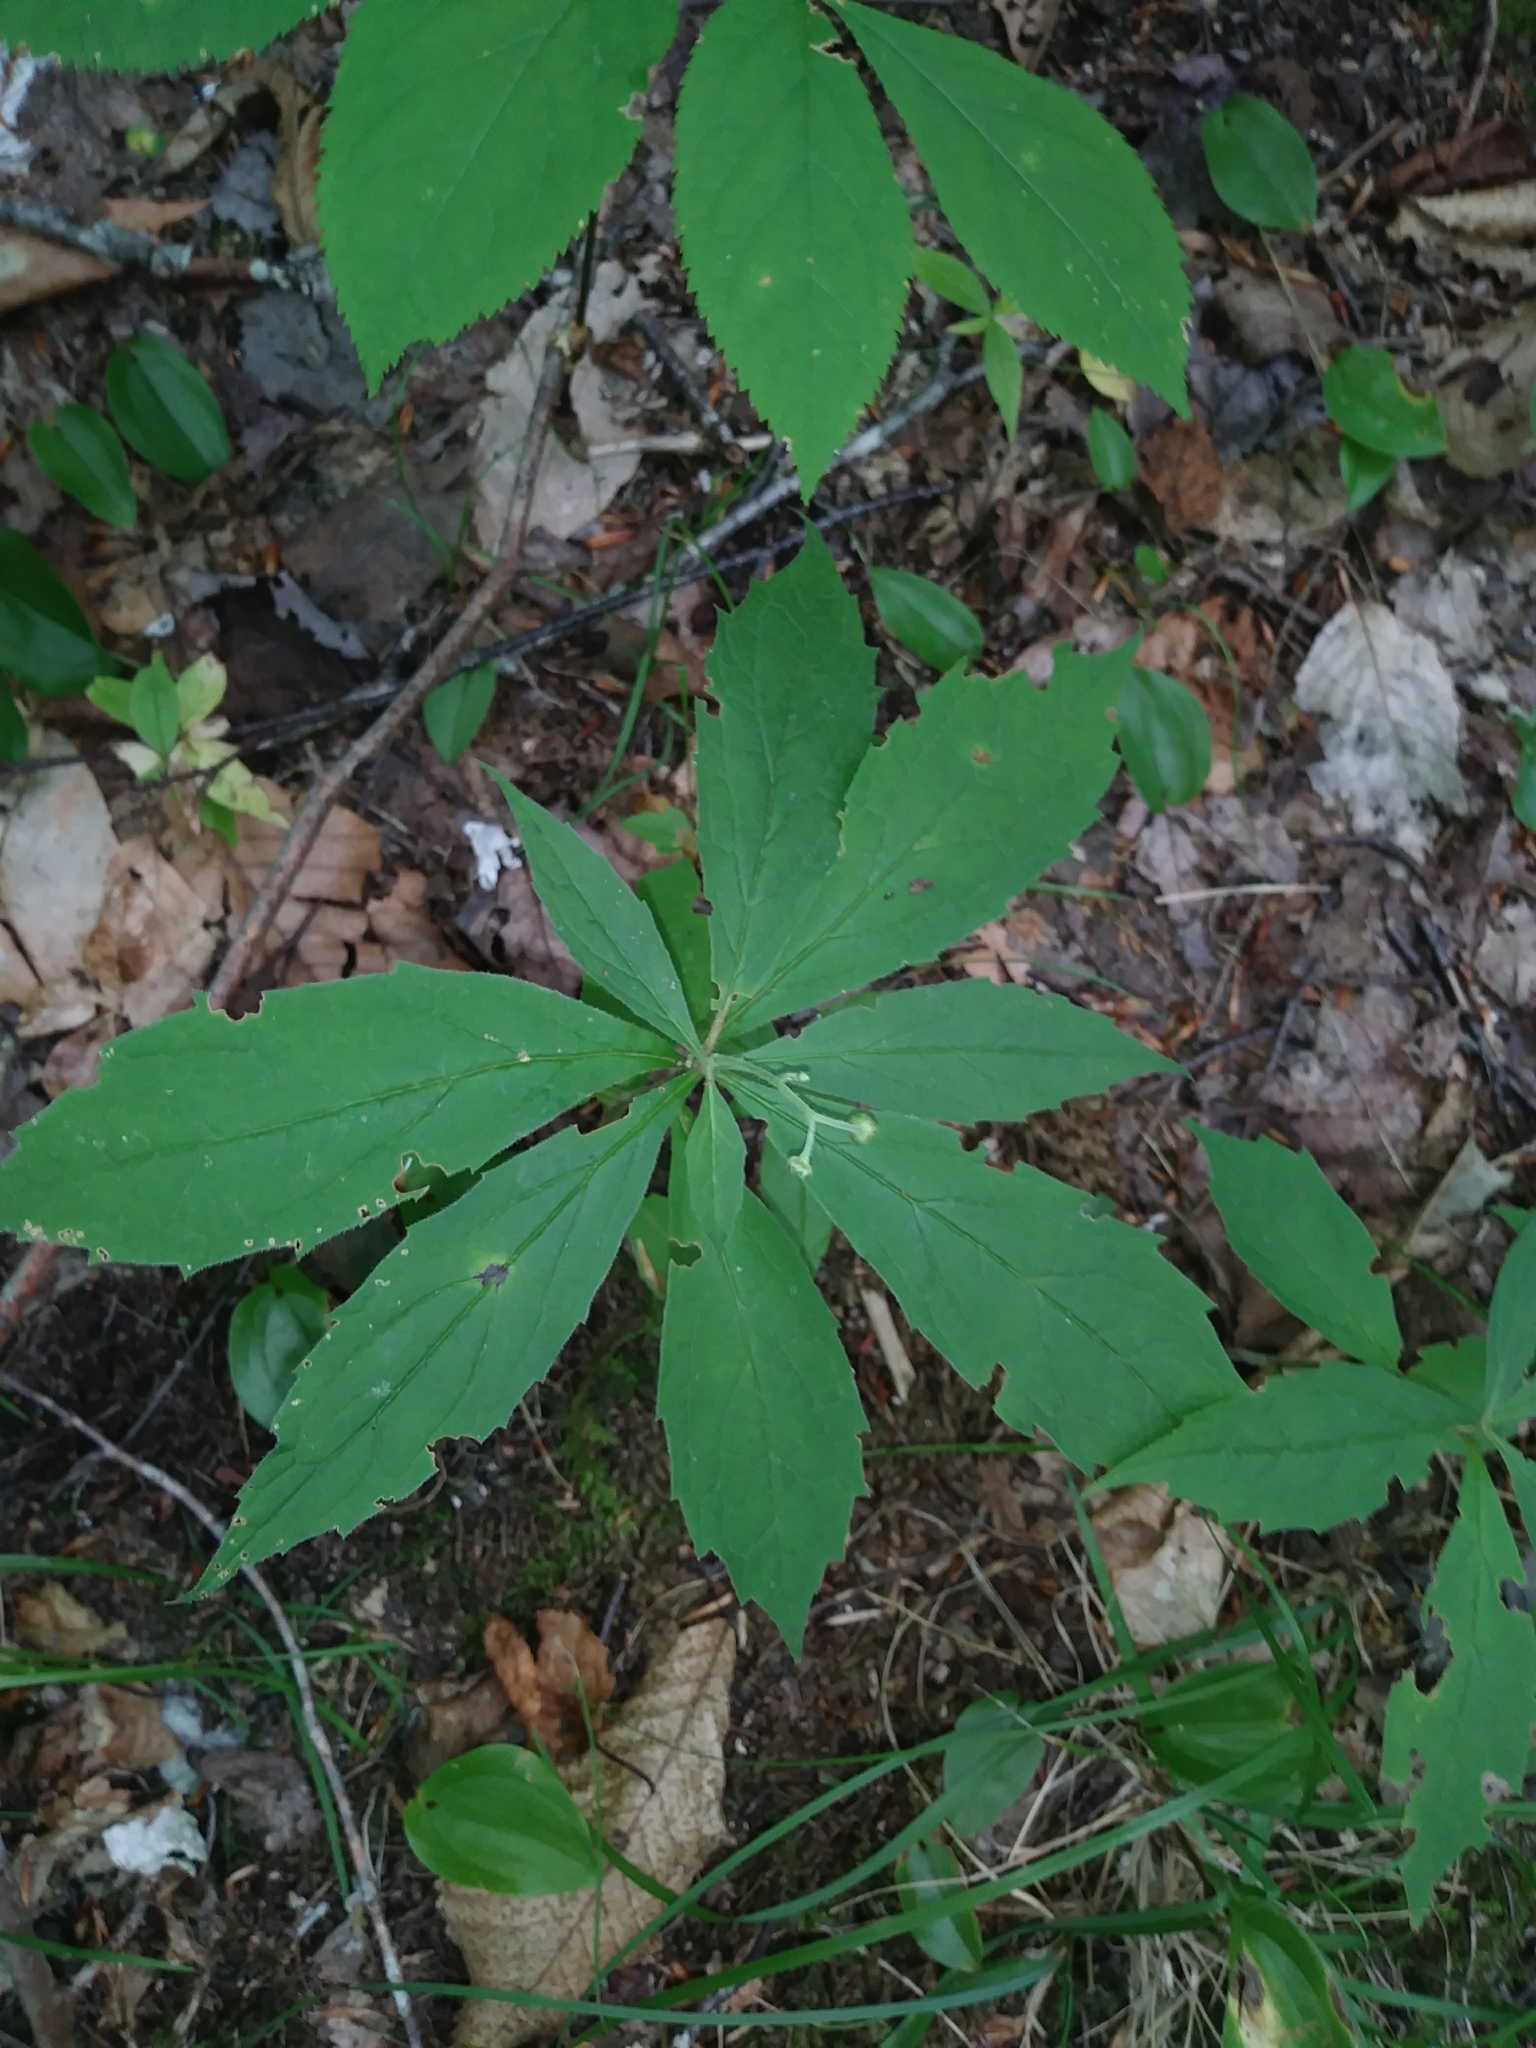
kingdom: Plantae
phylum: Tracheophyta
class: Magnoliopsida
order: Asterales
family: Asteraceae
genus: Oclemena
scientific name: Oclemena acuminata
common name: Mountain aster
